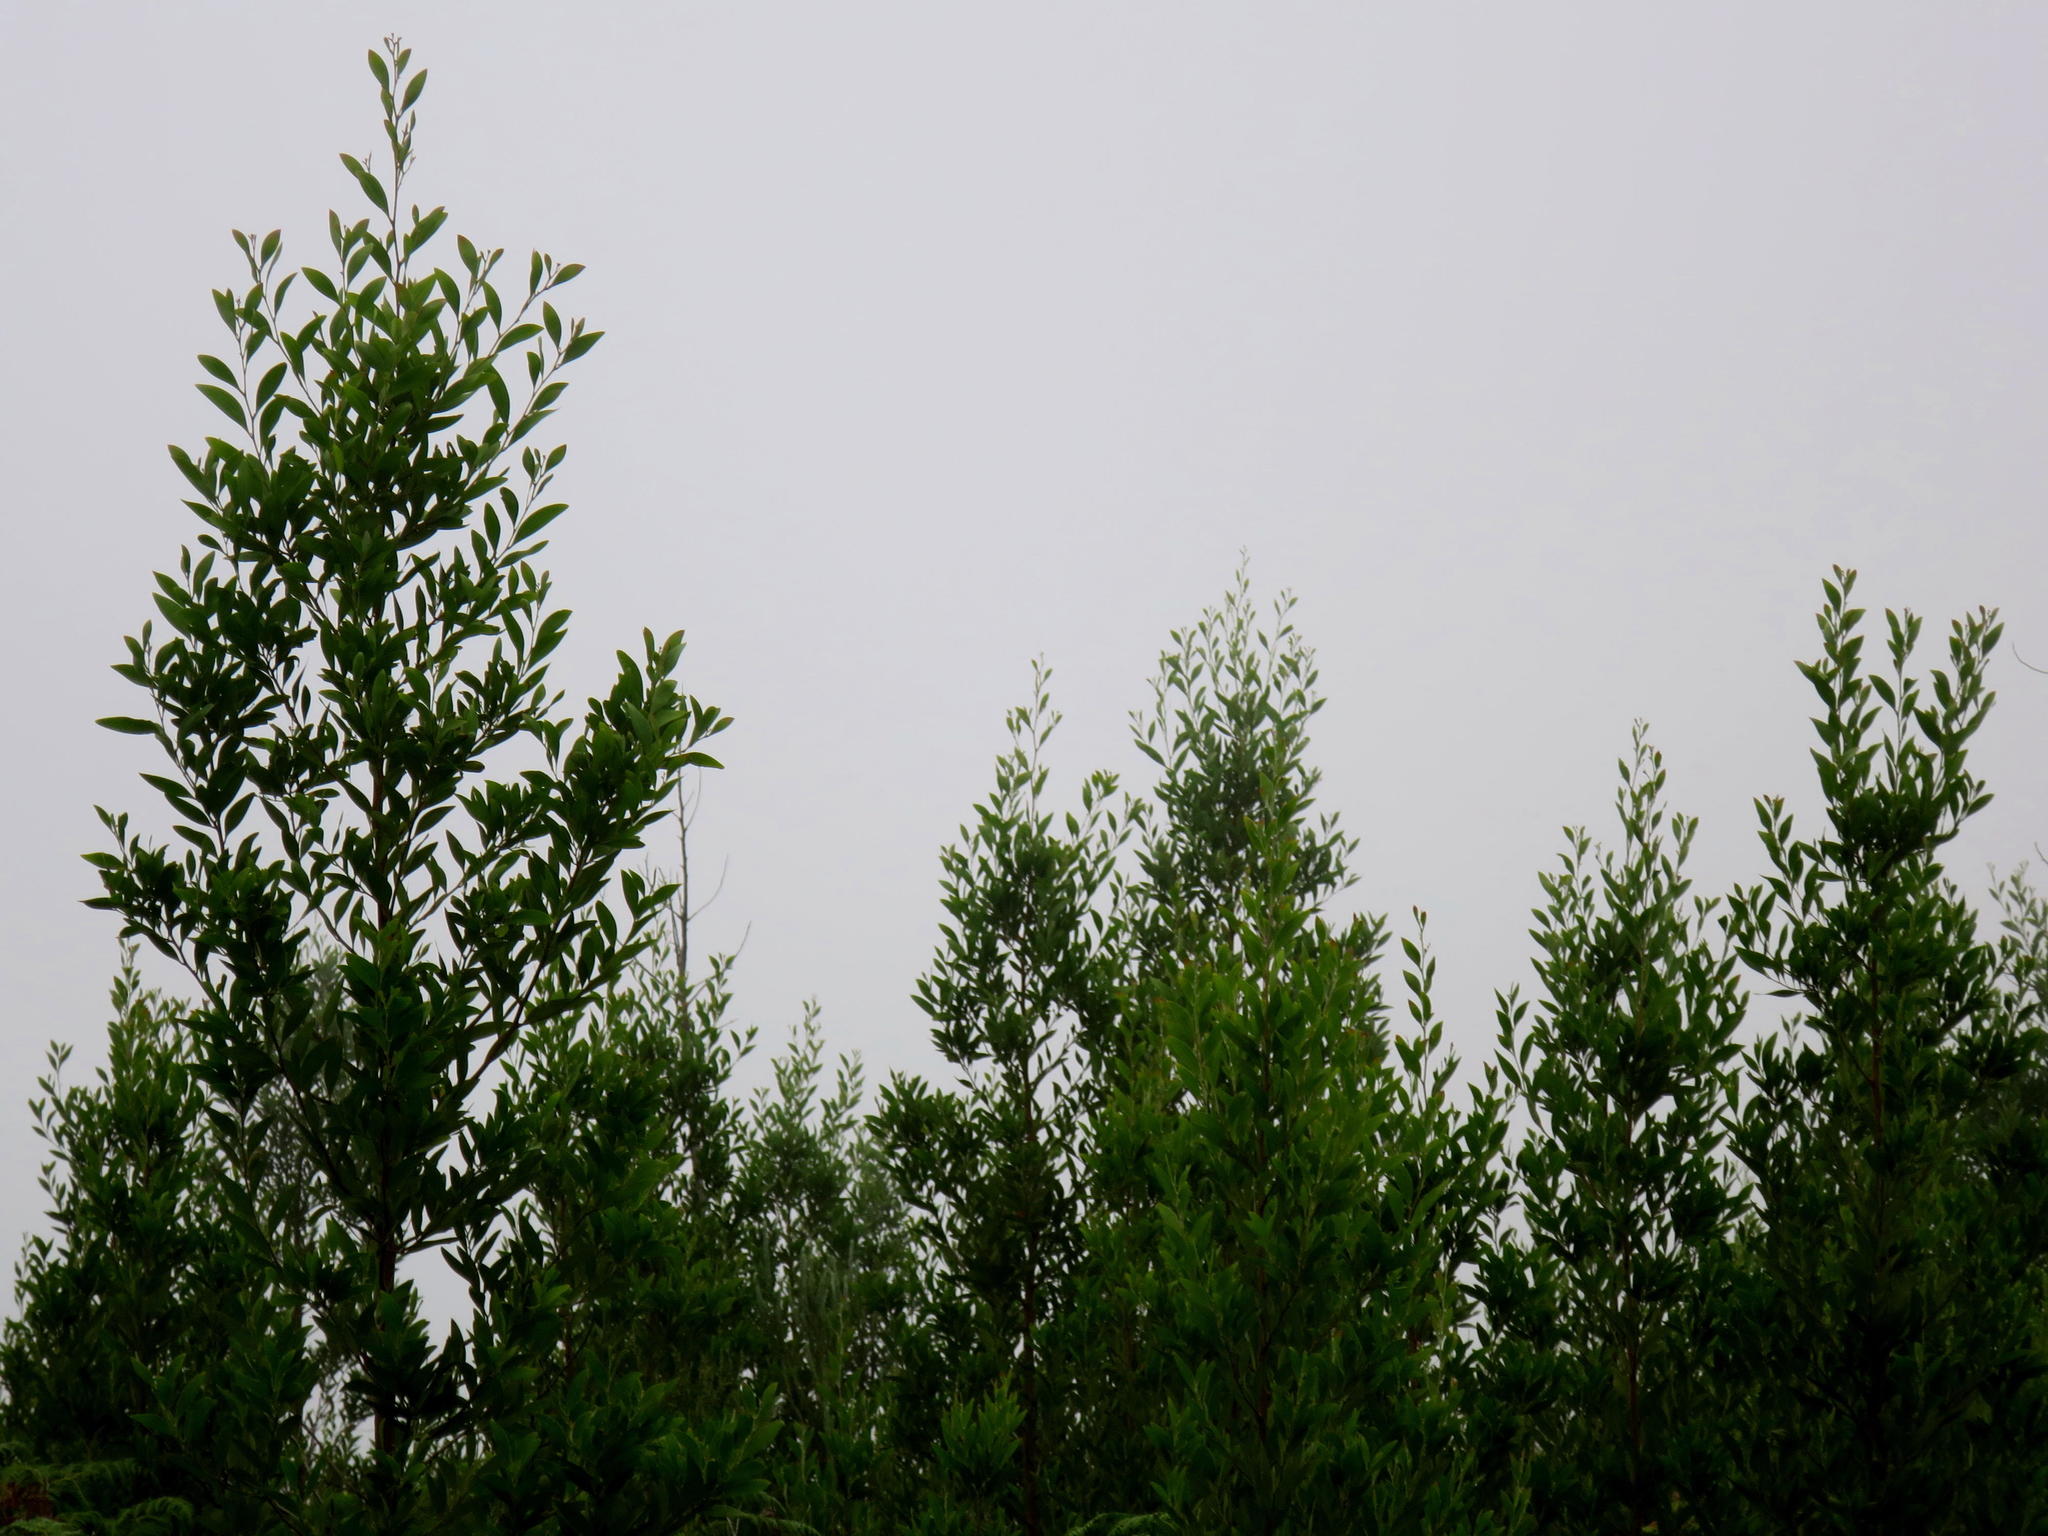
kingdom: Plantae
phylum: Tracheophyta
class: Magnoliopsida
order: Fabales
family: Fabaceae
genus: Acacia
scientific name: Acacia melanoxylon
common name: Blackwood
